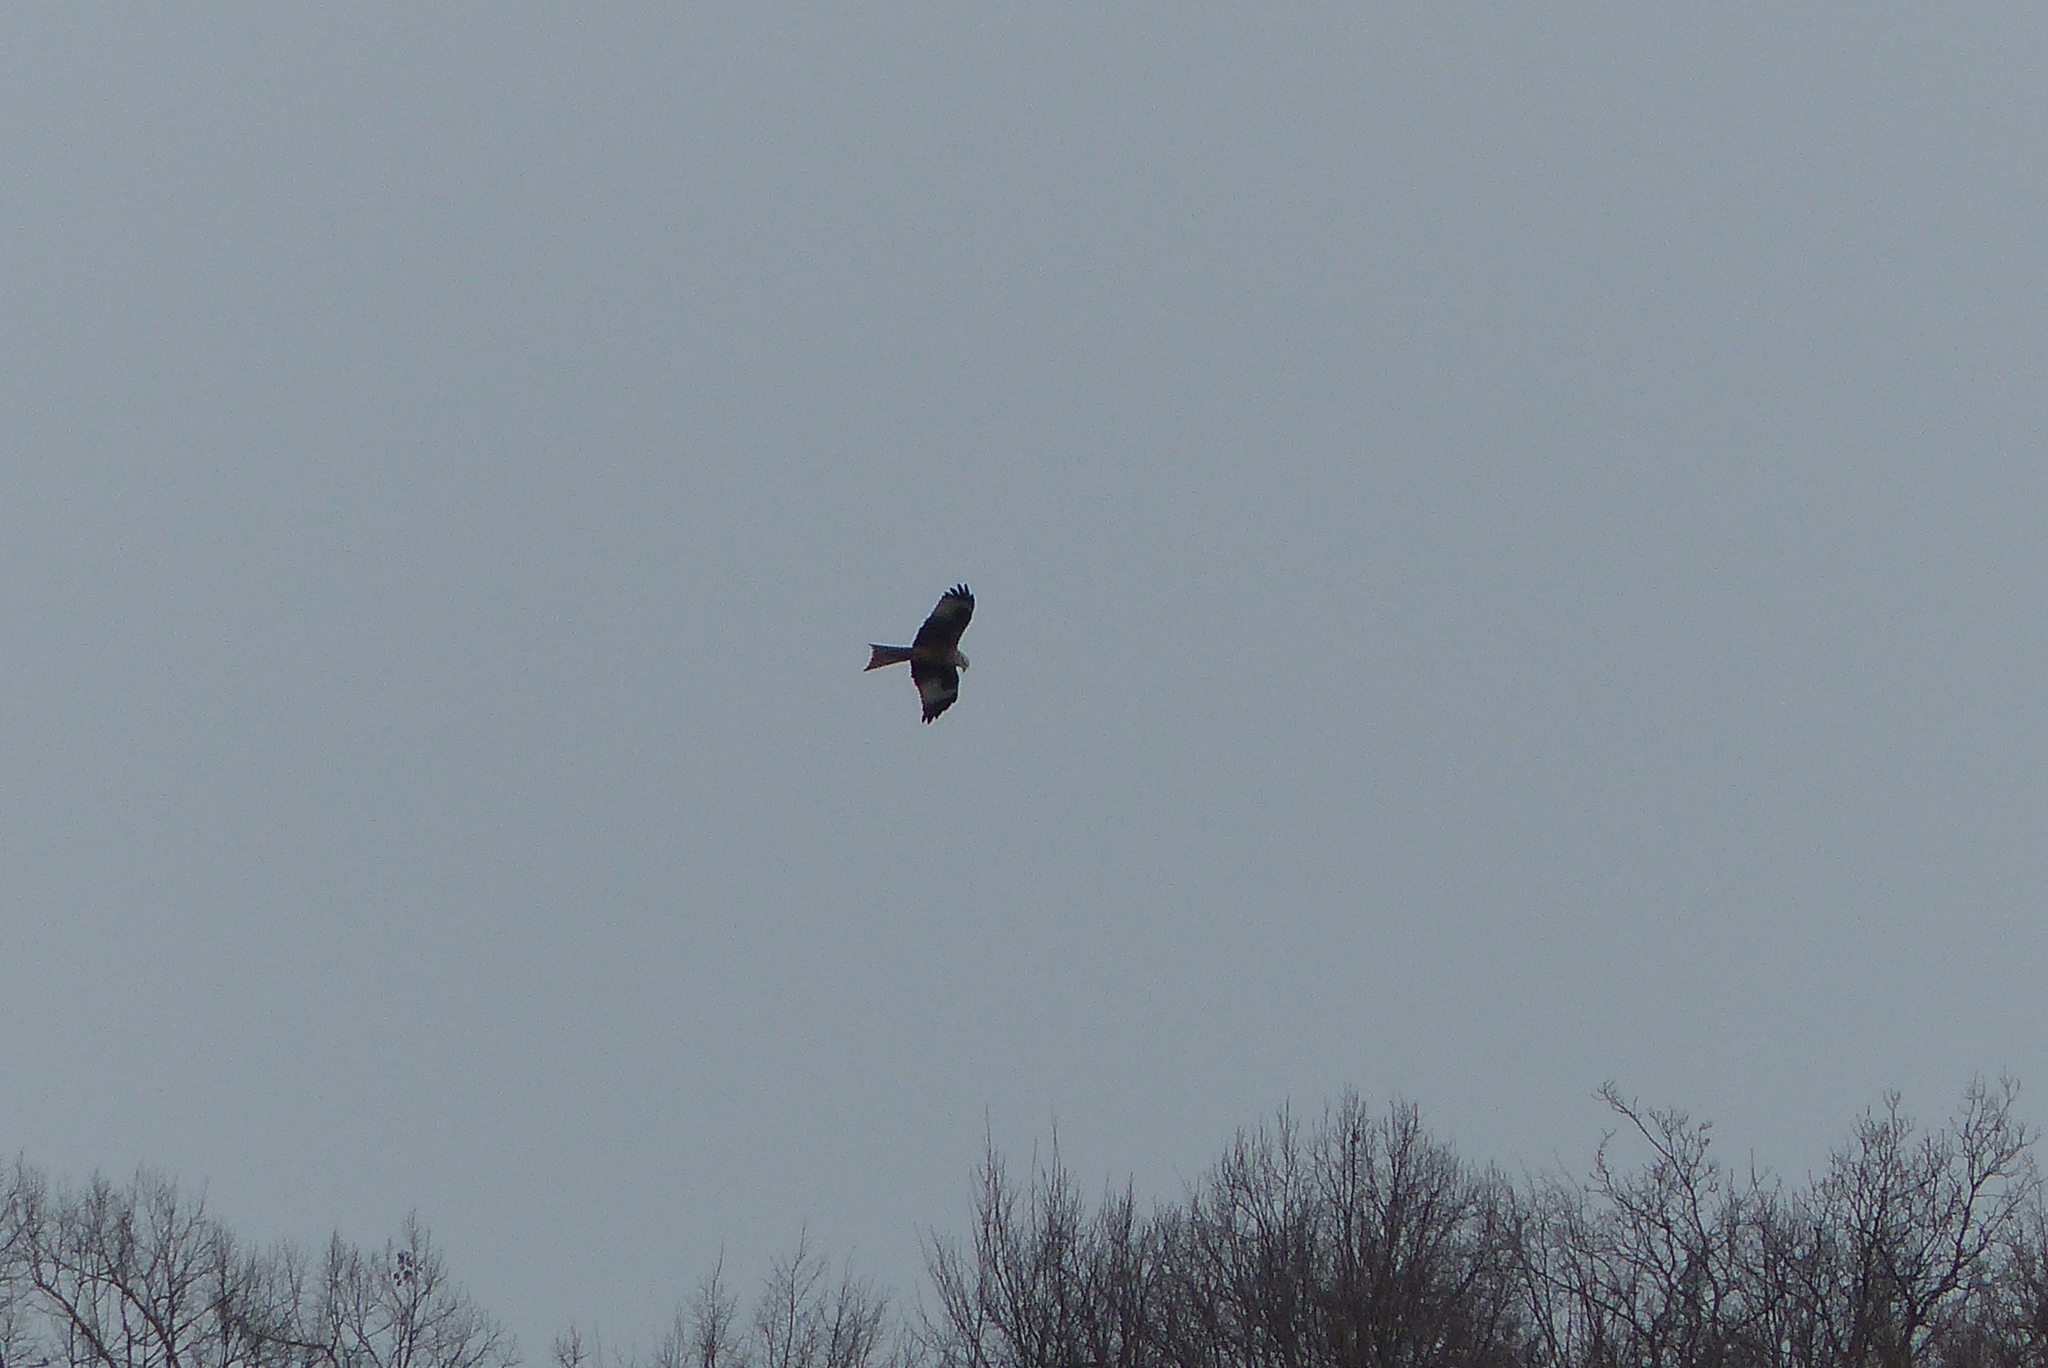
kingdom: Animalia
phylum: Chordata
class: Aves
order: Accipitriformes
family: Accipitridae
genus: Milvus
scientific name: Milvus milvus
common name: Red kite
